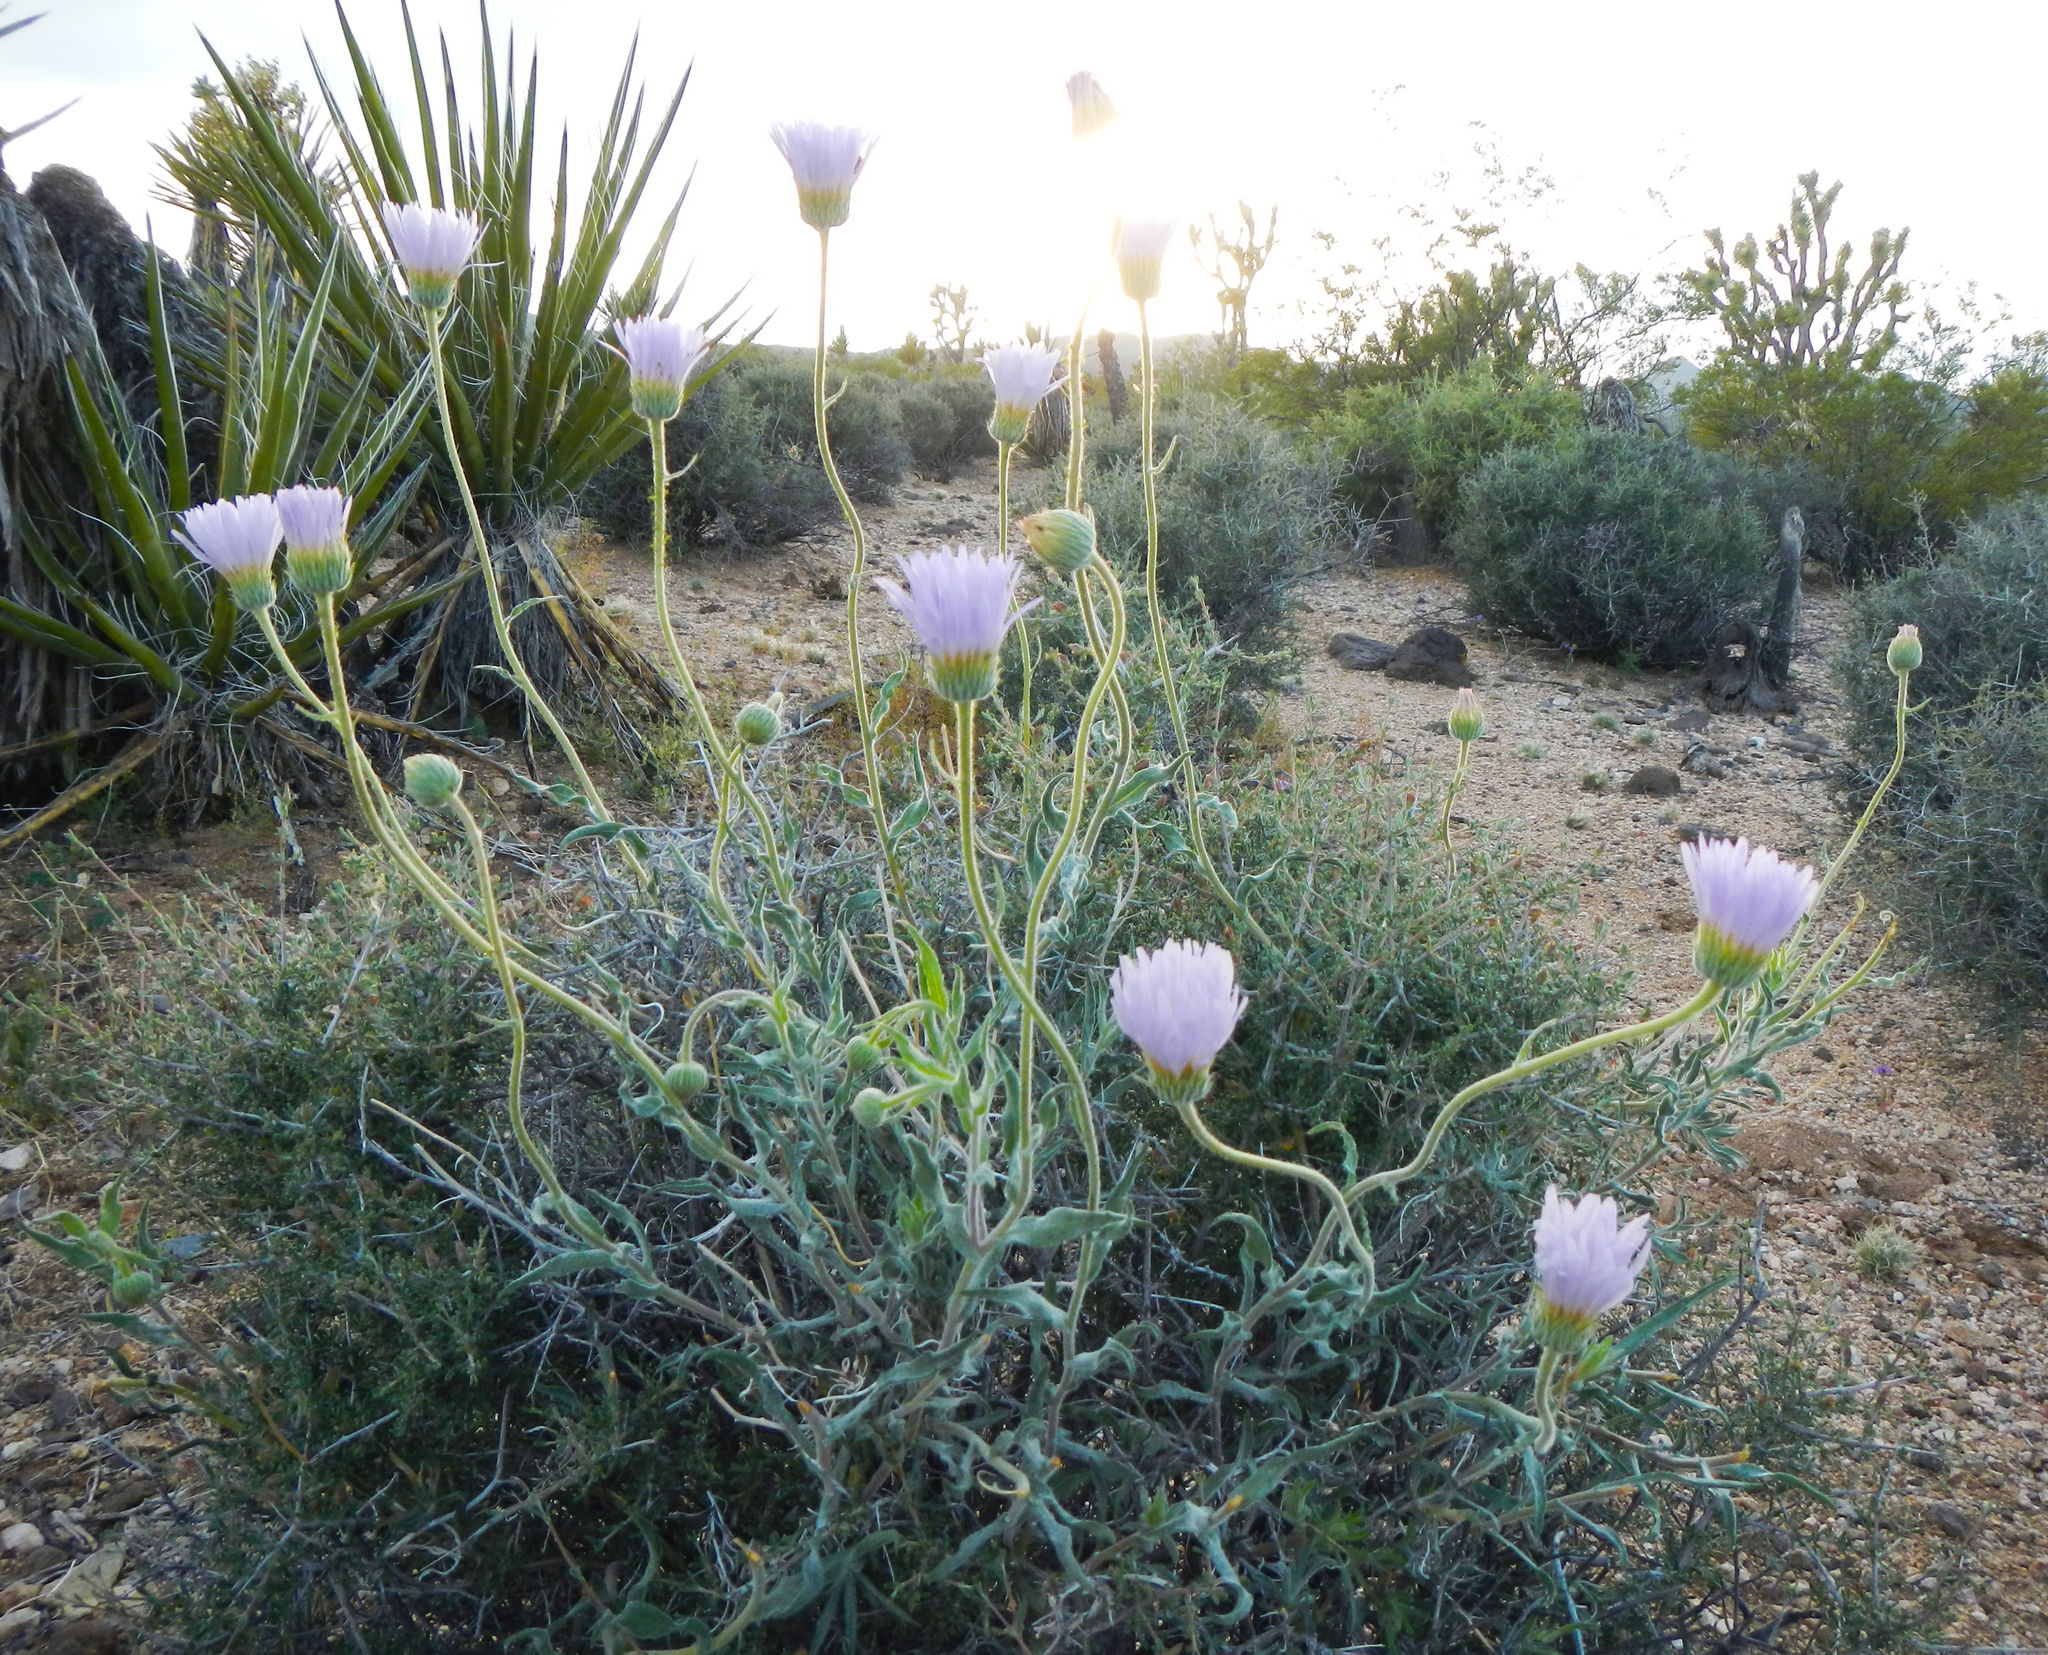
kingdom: Plantae
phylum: Tracheophyta
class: Magnoliopsida
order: Asterales
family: Asteraceae
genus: Xylorhiza
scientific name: Xylorhiza tortifolia
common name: Hurt-leaf woody-aster
